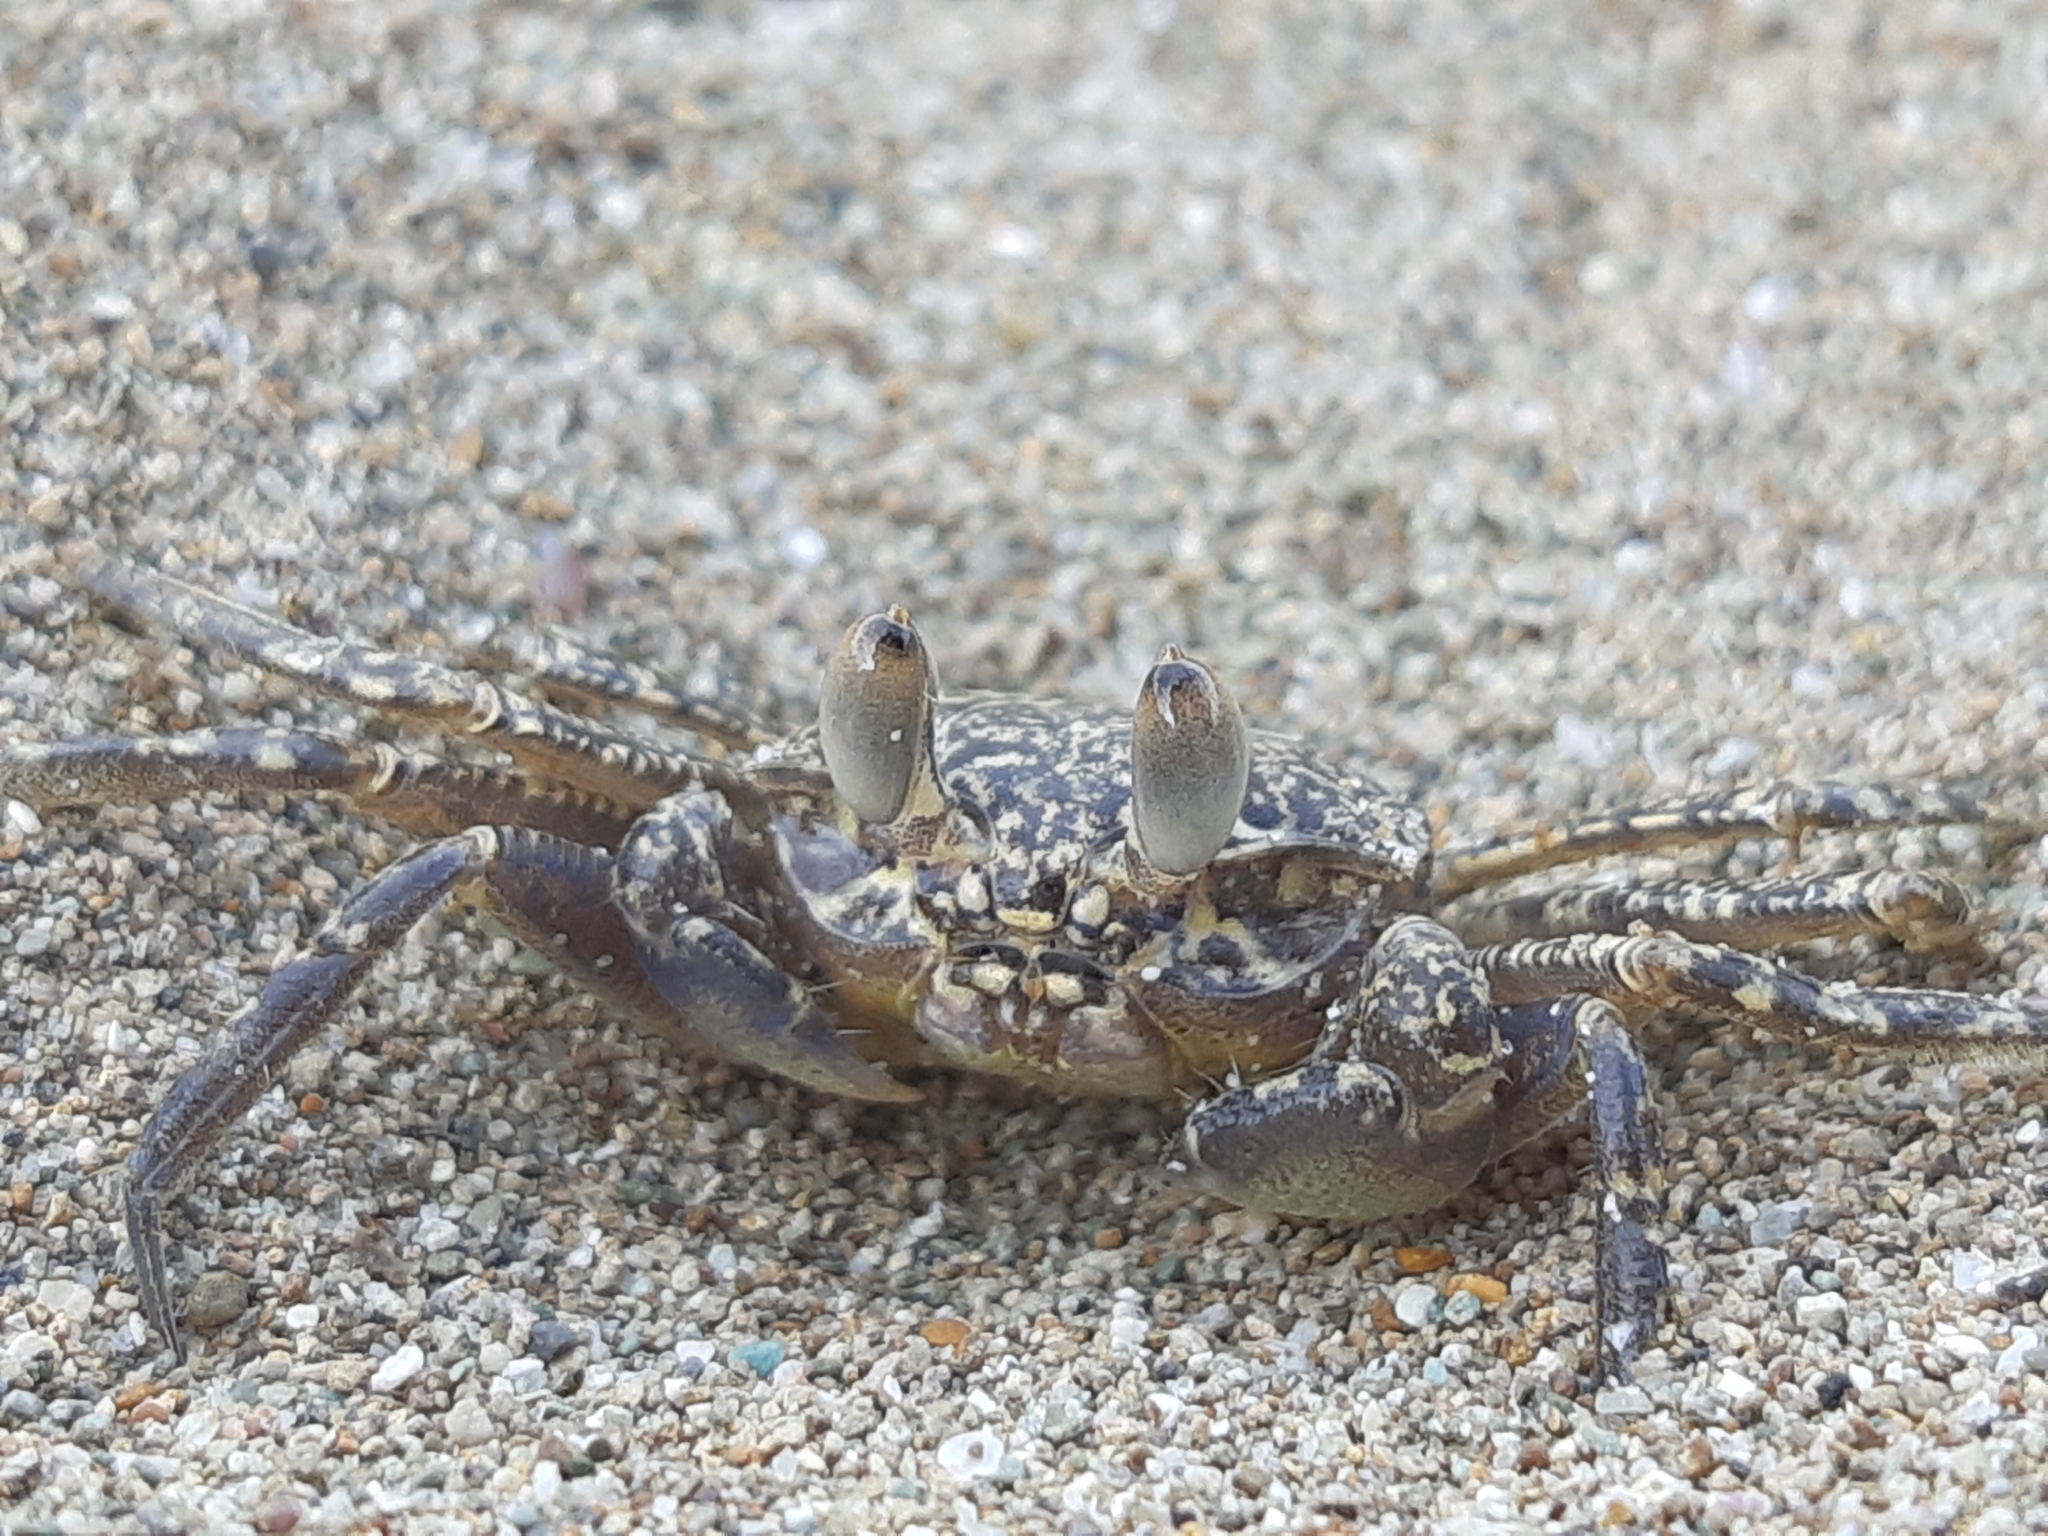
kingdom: Animalia
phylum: Arthropoda
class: Malacostraca
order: Decapoda
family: Ocypodidae
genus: Ocypode
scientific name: Ocypode gaudichaudii
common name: Pacific ghost crab
